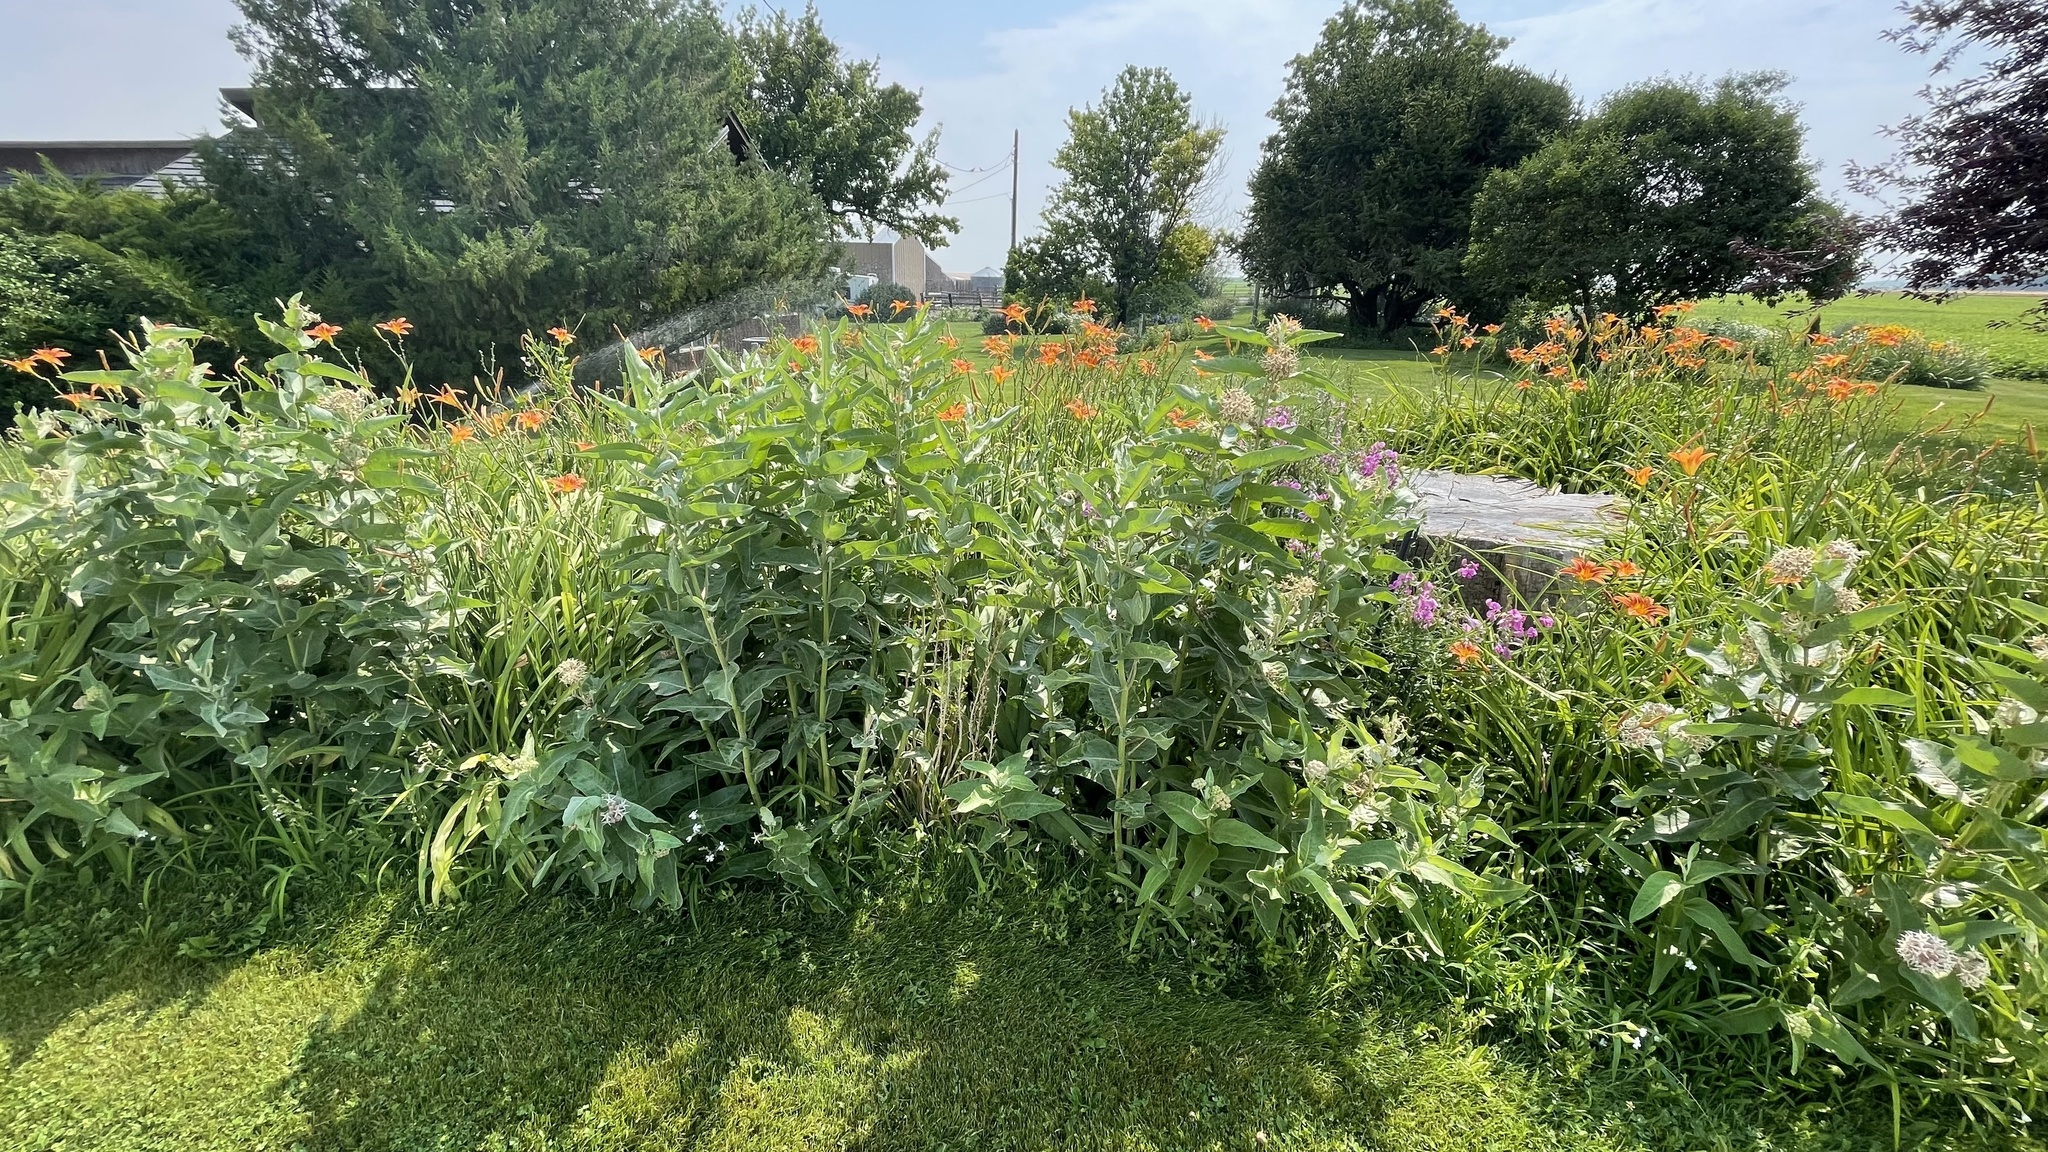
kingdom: Plantae
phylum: Tracheophyta
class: Magnoliopsida
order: Gentianales
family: Apocynaceae
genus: Asclepias
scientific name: Asclepias speciosa
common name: Showy milkweed
